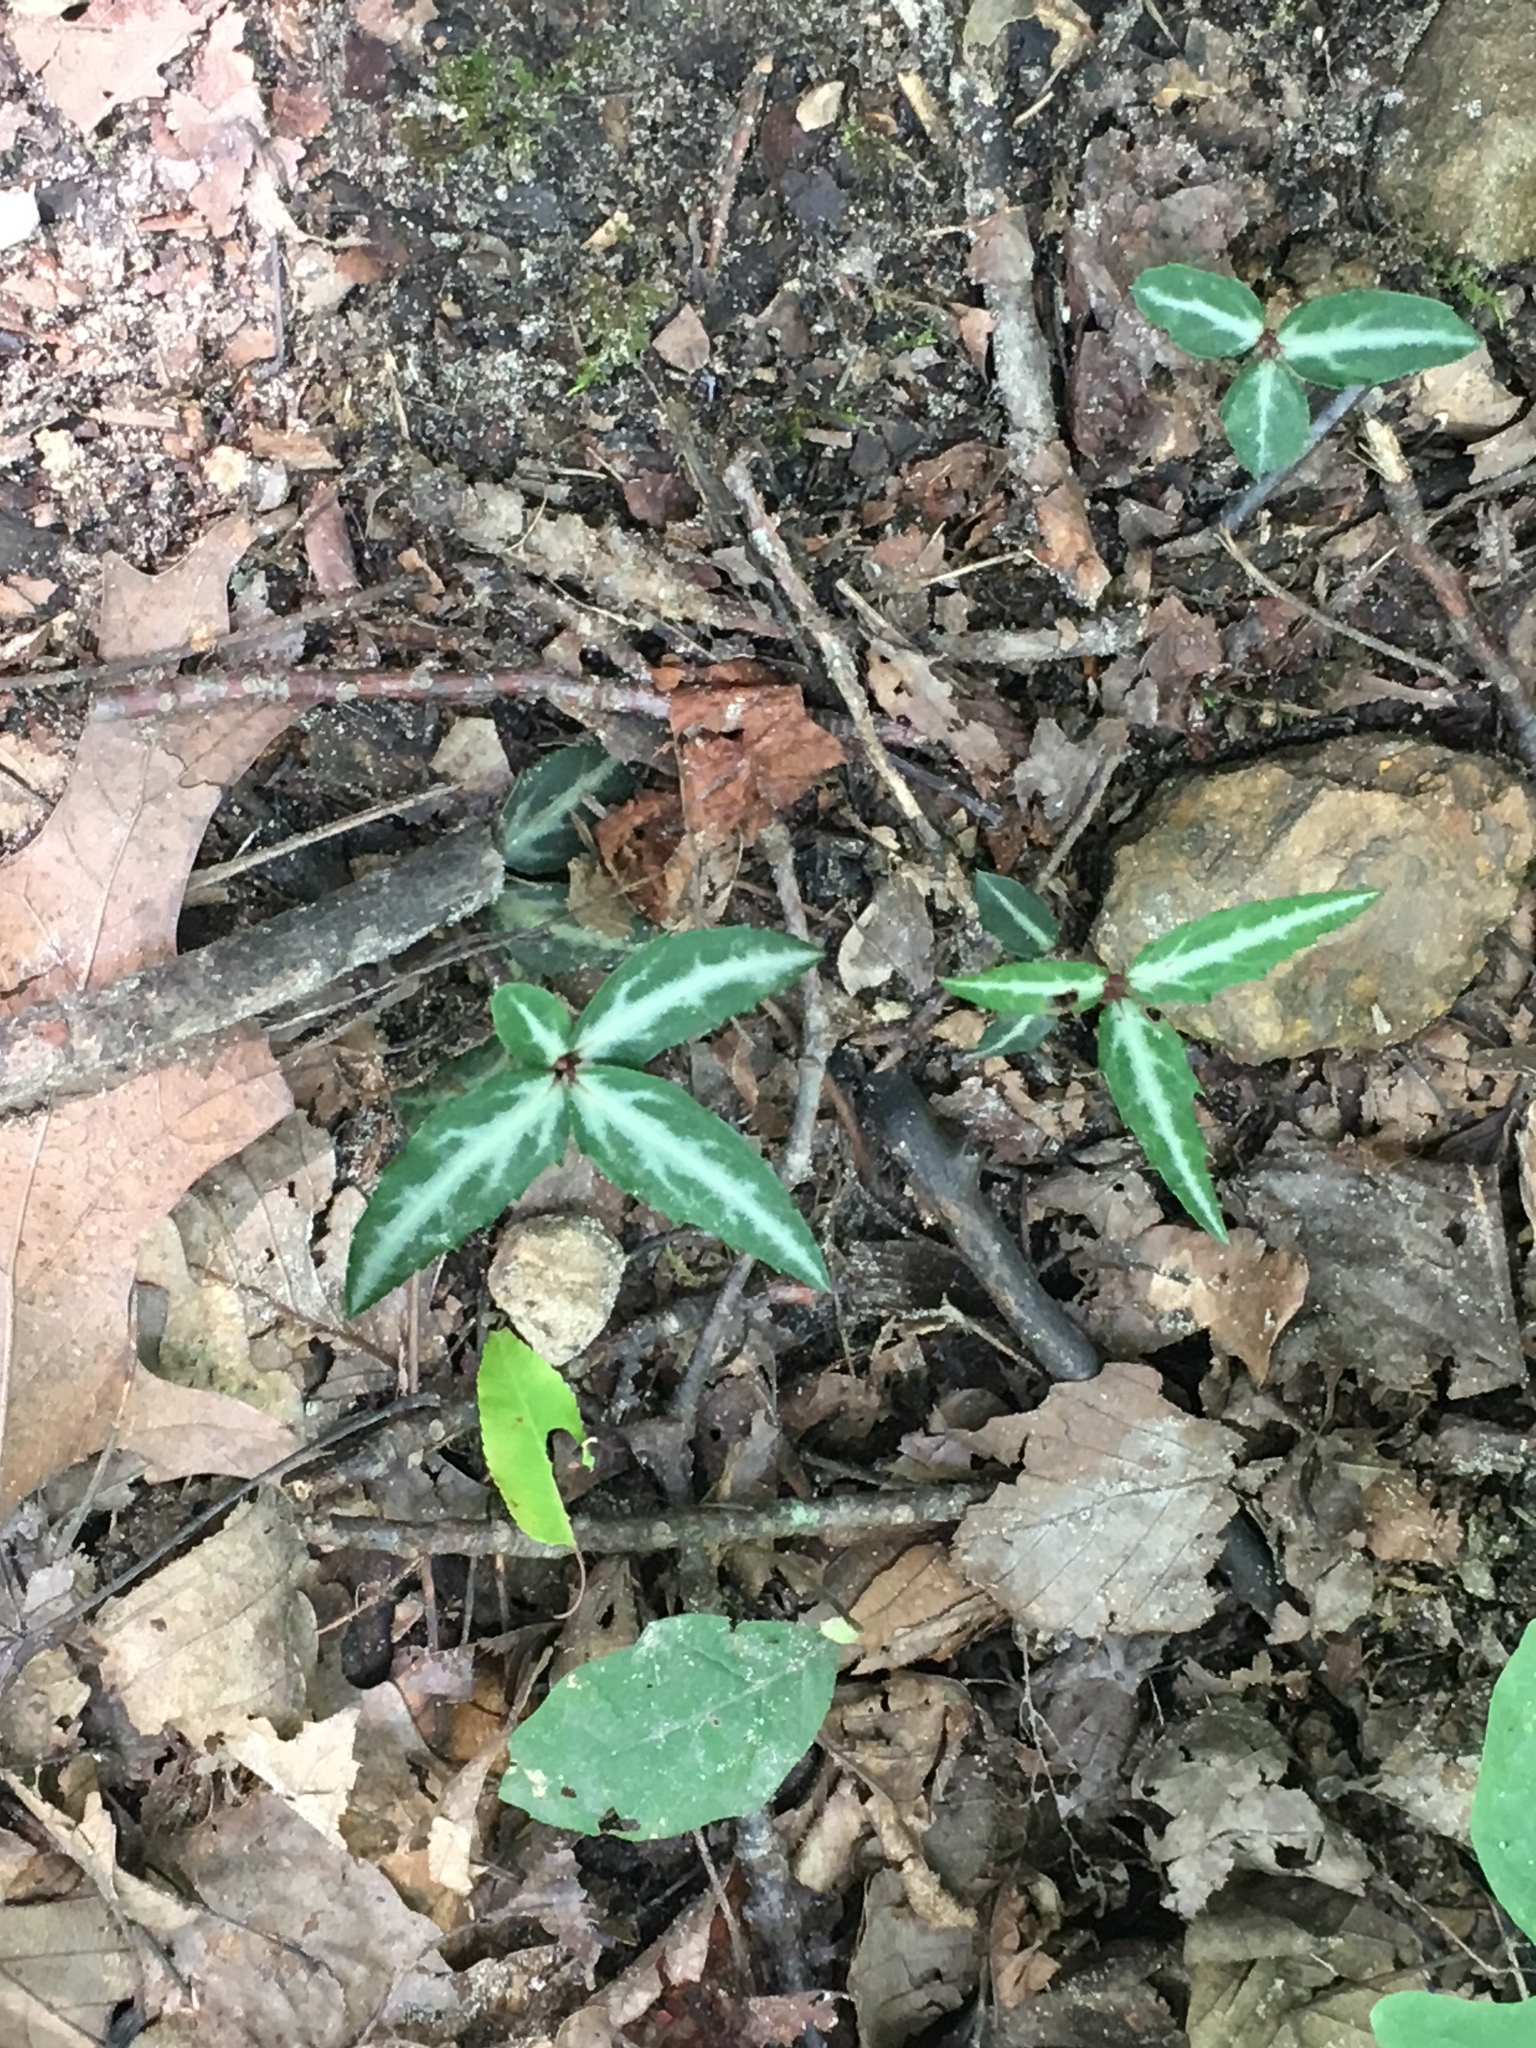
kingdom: Plantae
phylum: Tracheophyta
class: Magnoliopsida
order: Ericales
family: Ericaceae
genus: Chimaphila
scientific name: Chimaphila maculata
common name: Spotted pipsissewa
